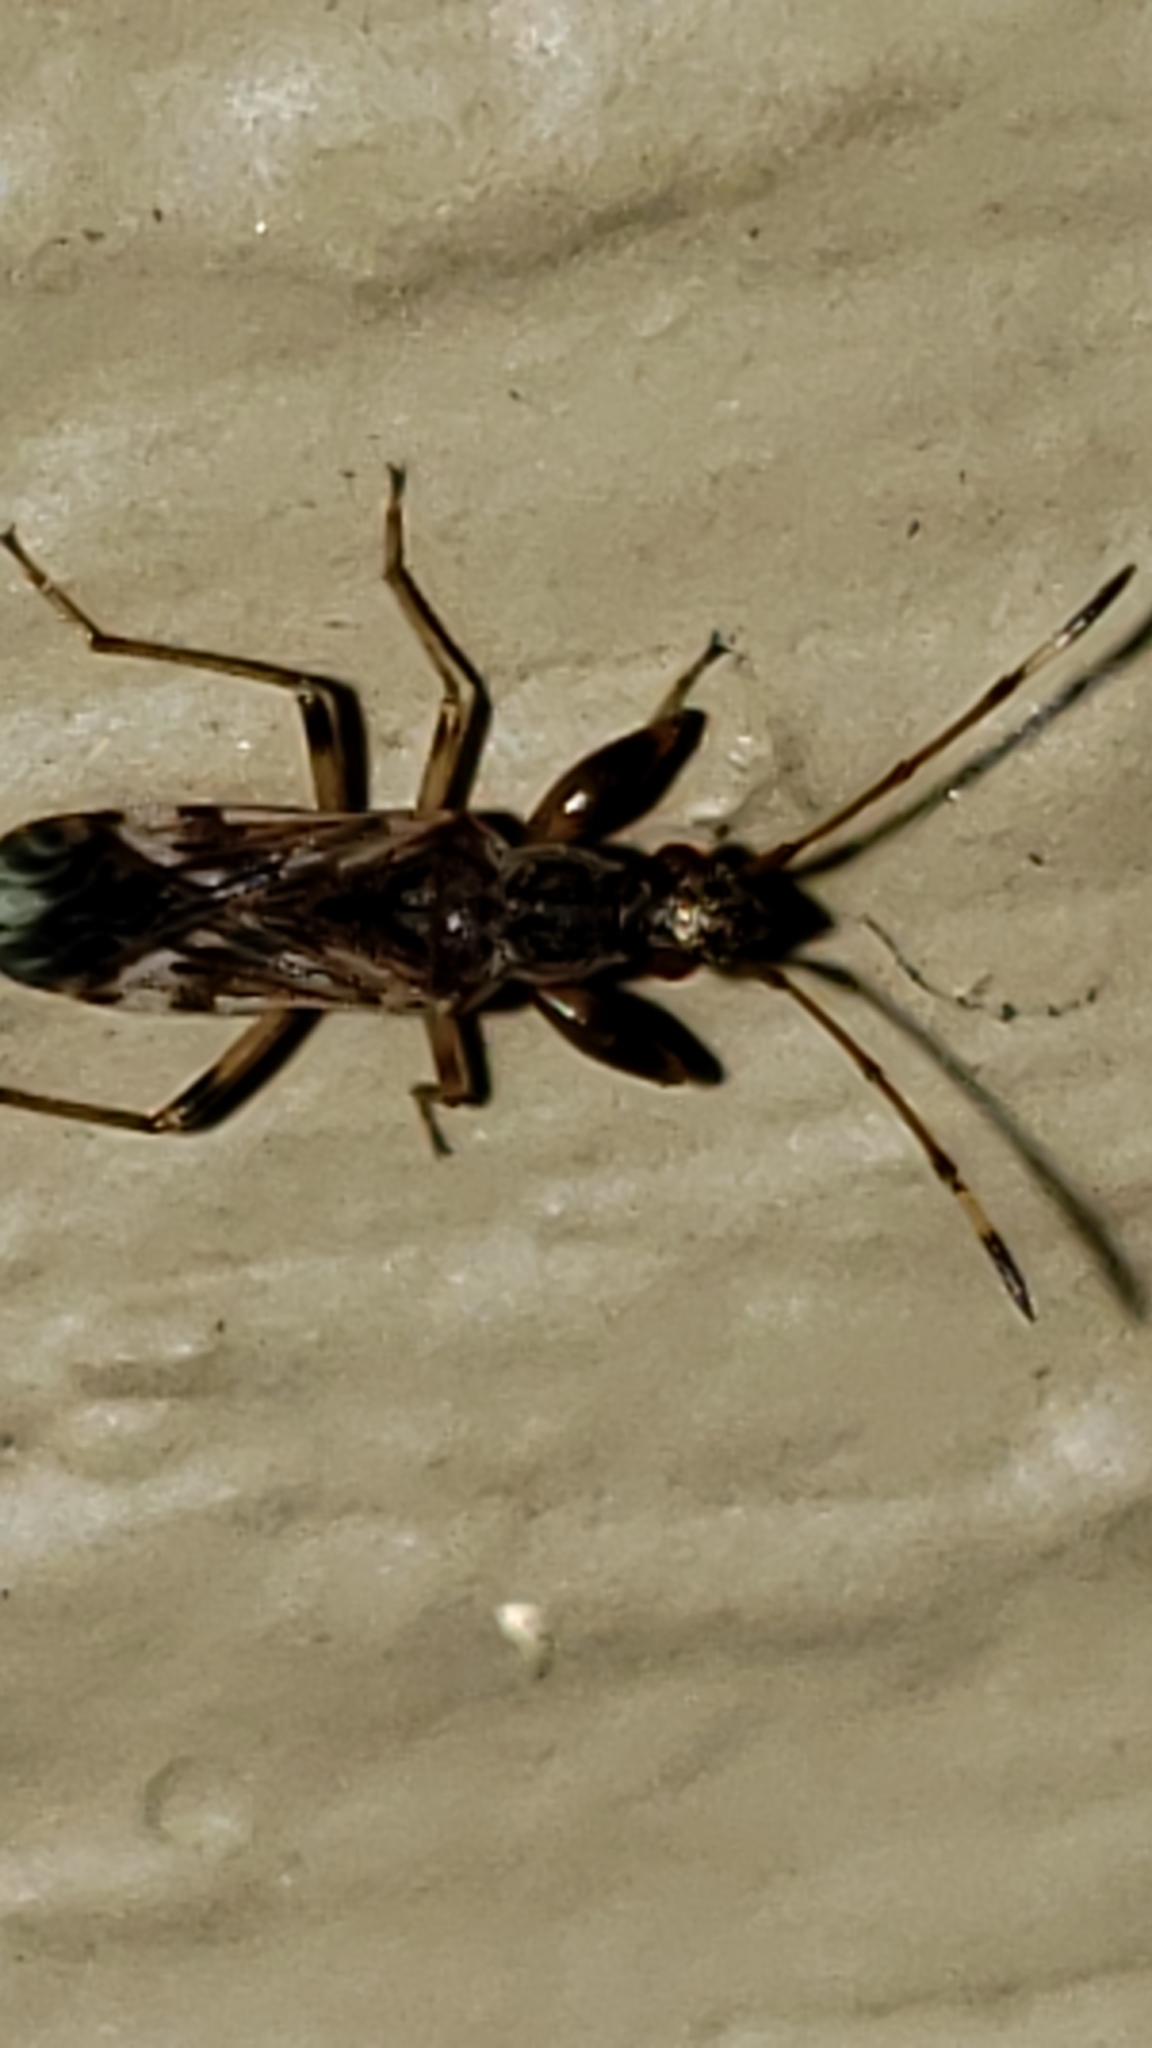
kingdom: Animalia
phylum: Arthropoda
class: Insecta
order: Hemiptera
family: Rhyparochromidae
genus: Neopamera
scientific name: Neopamera albocincta
